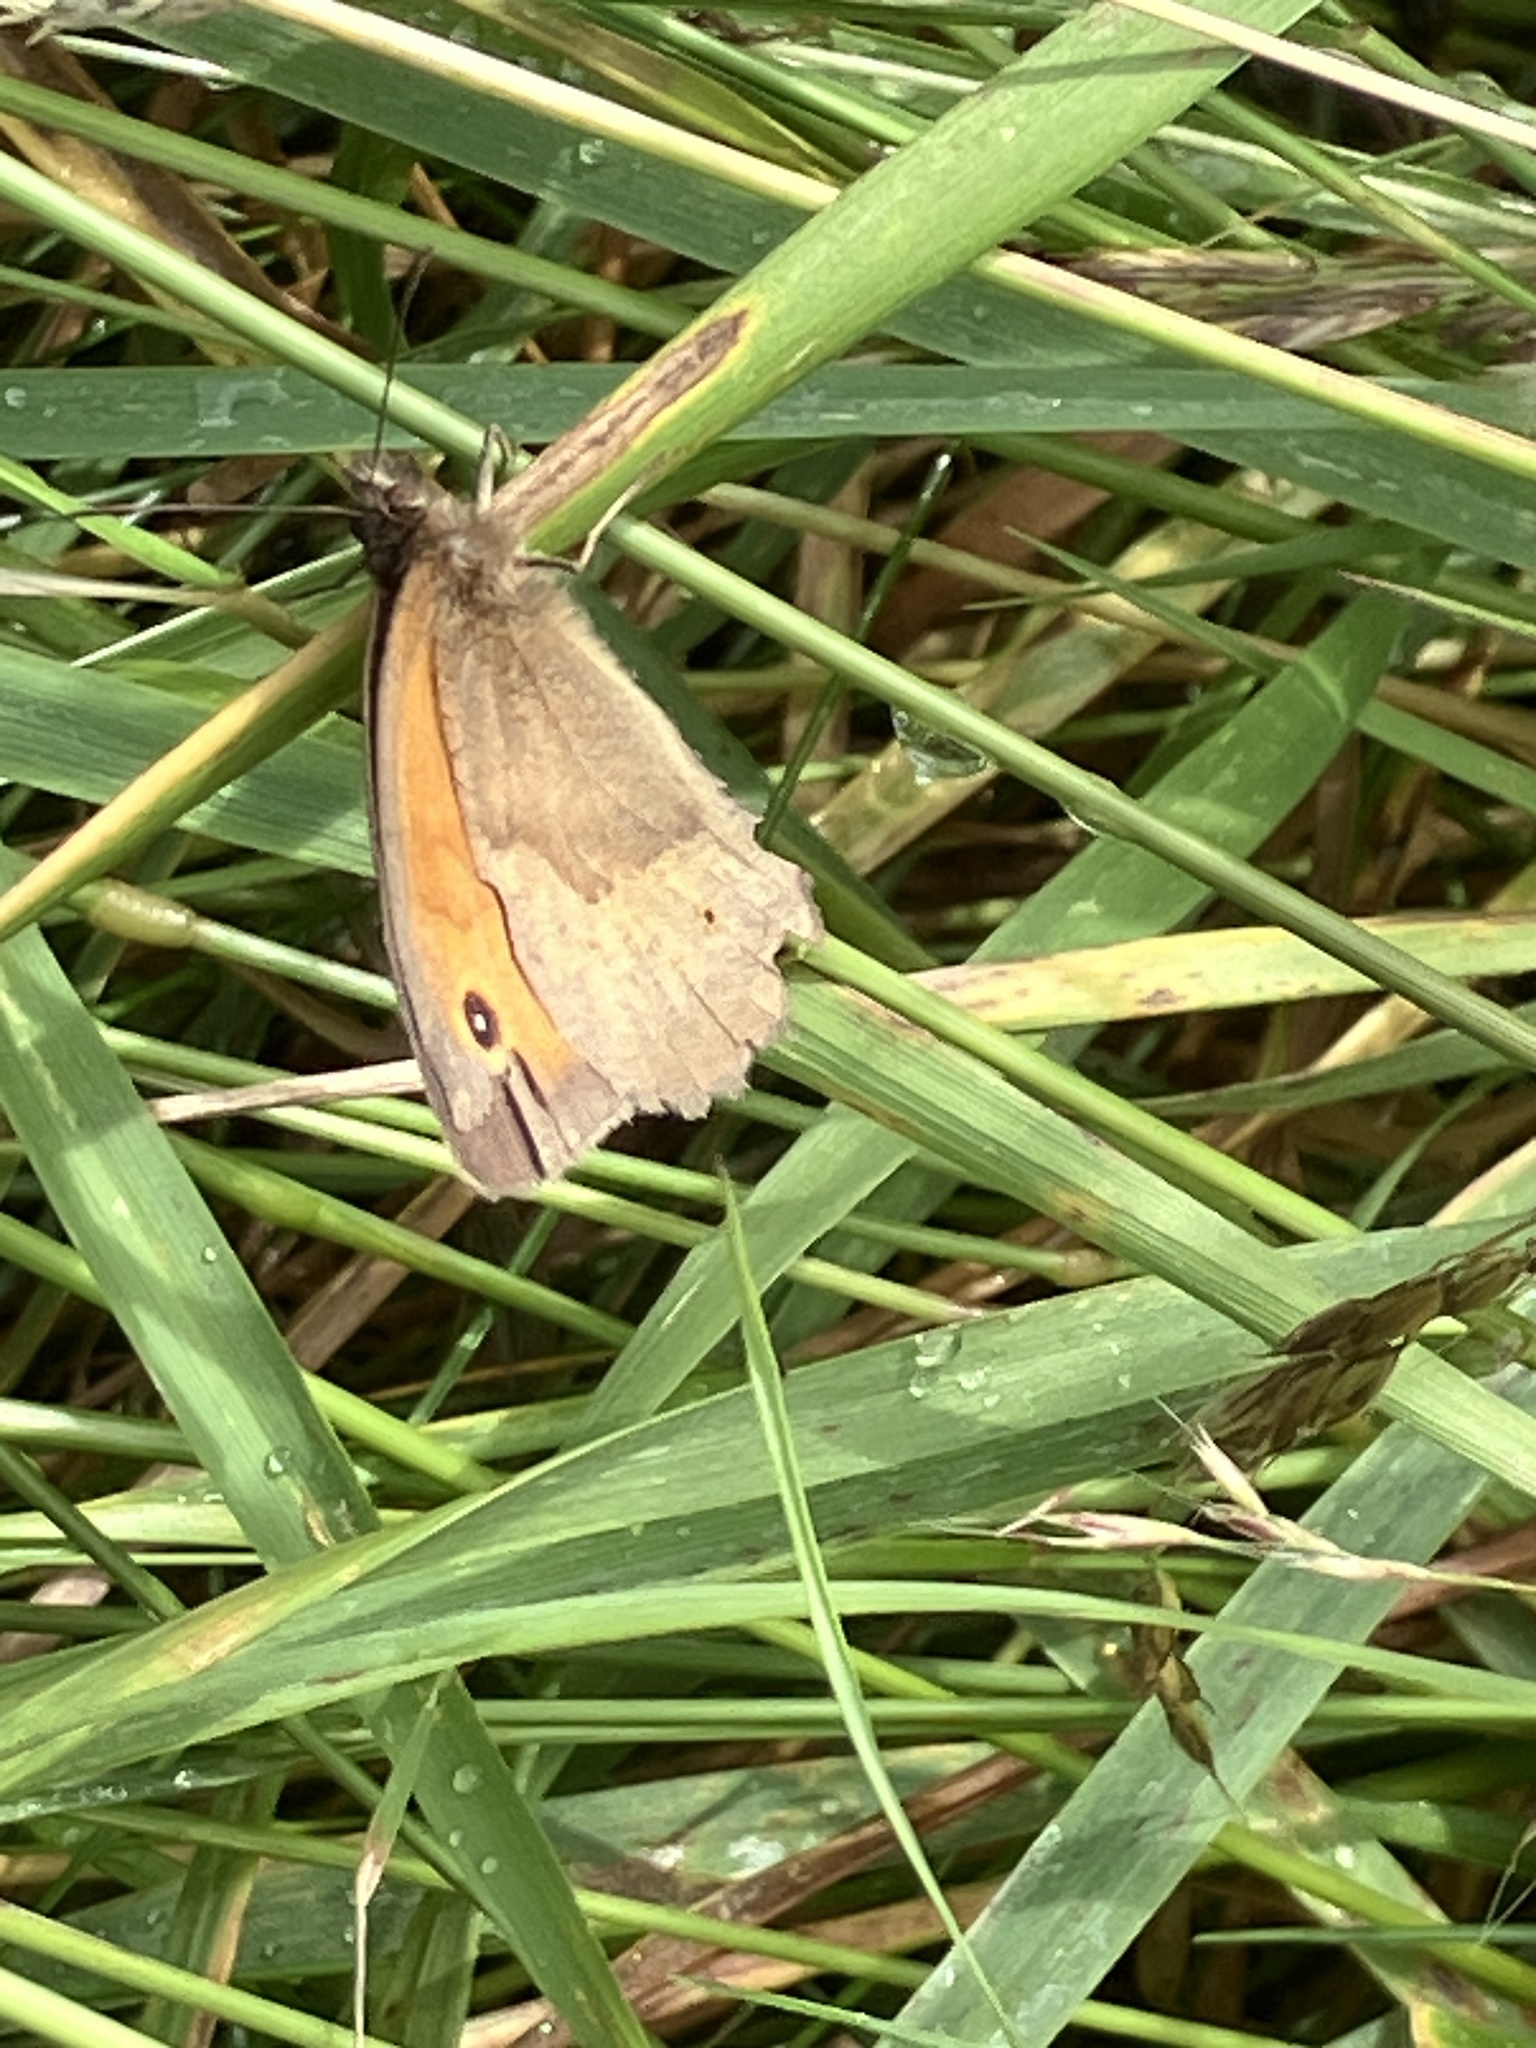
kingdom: Animalia
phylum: Arthropoda
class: Insecta
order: Lepidoptera
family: Nymphalidae
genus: Maniola
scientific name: Maniola jurtina
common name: Meadow brown
